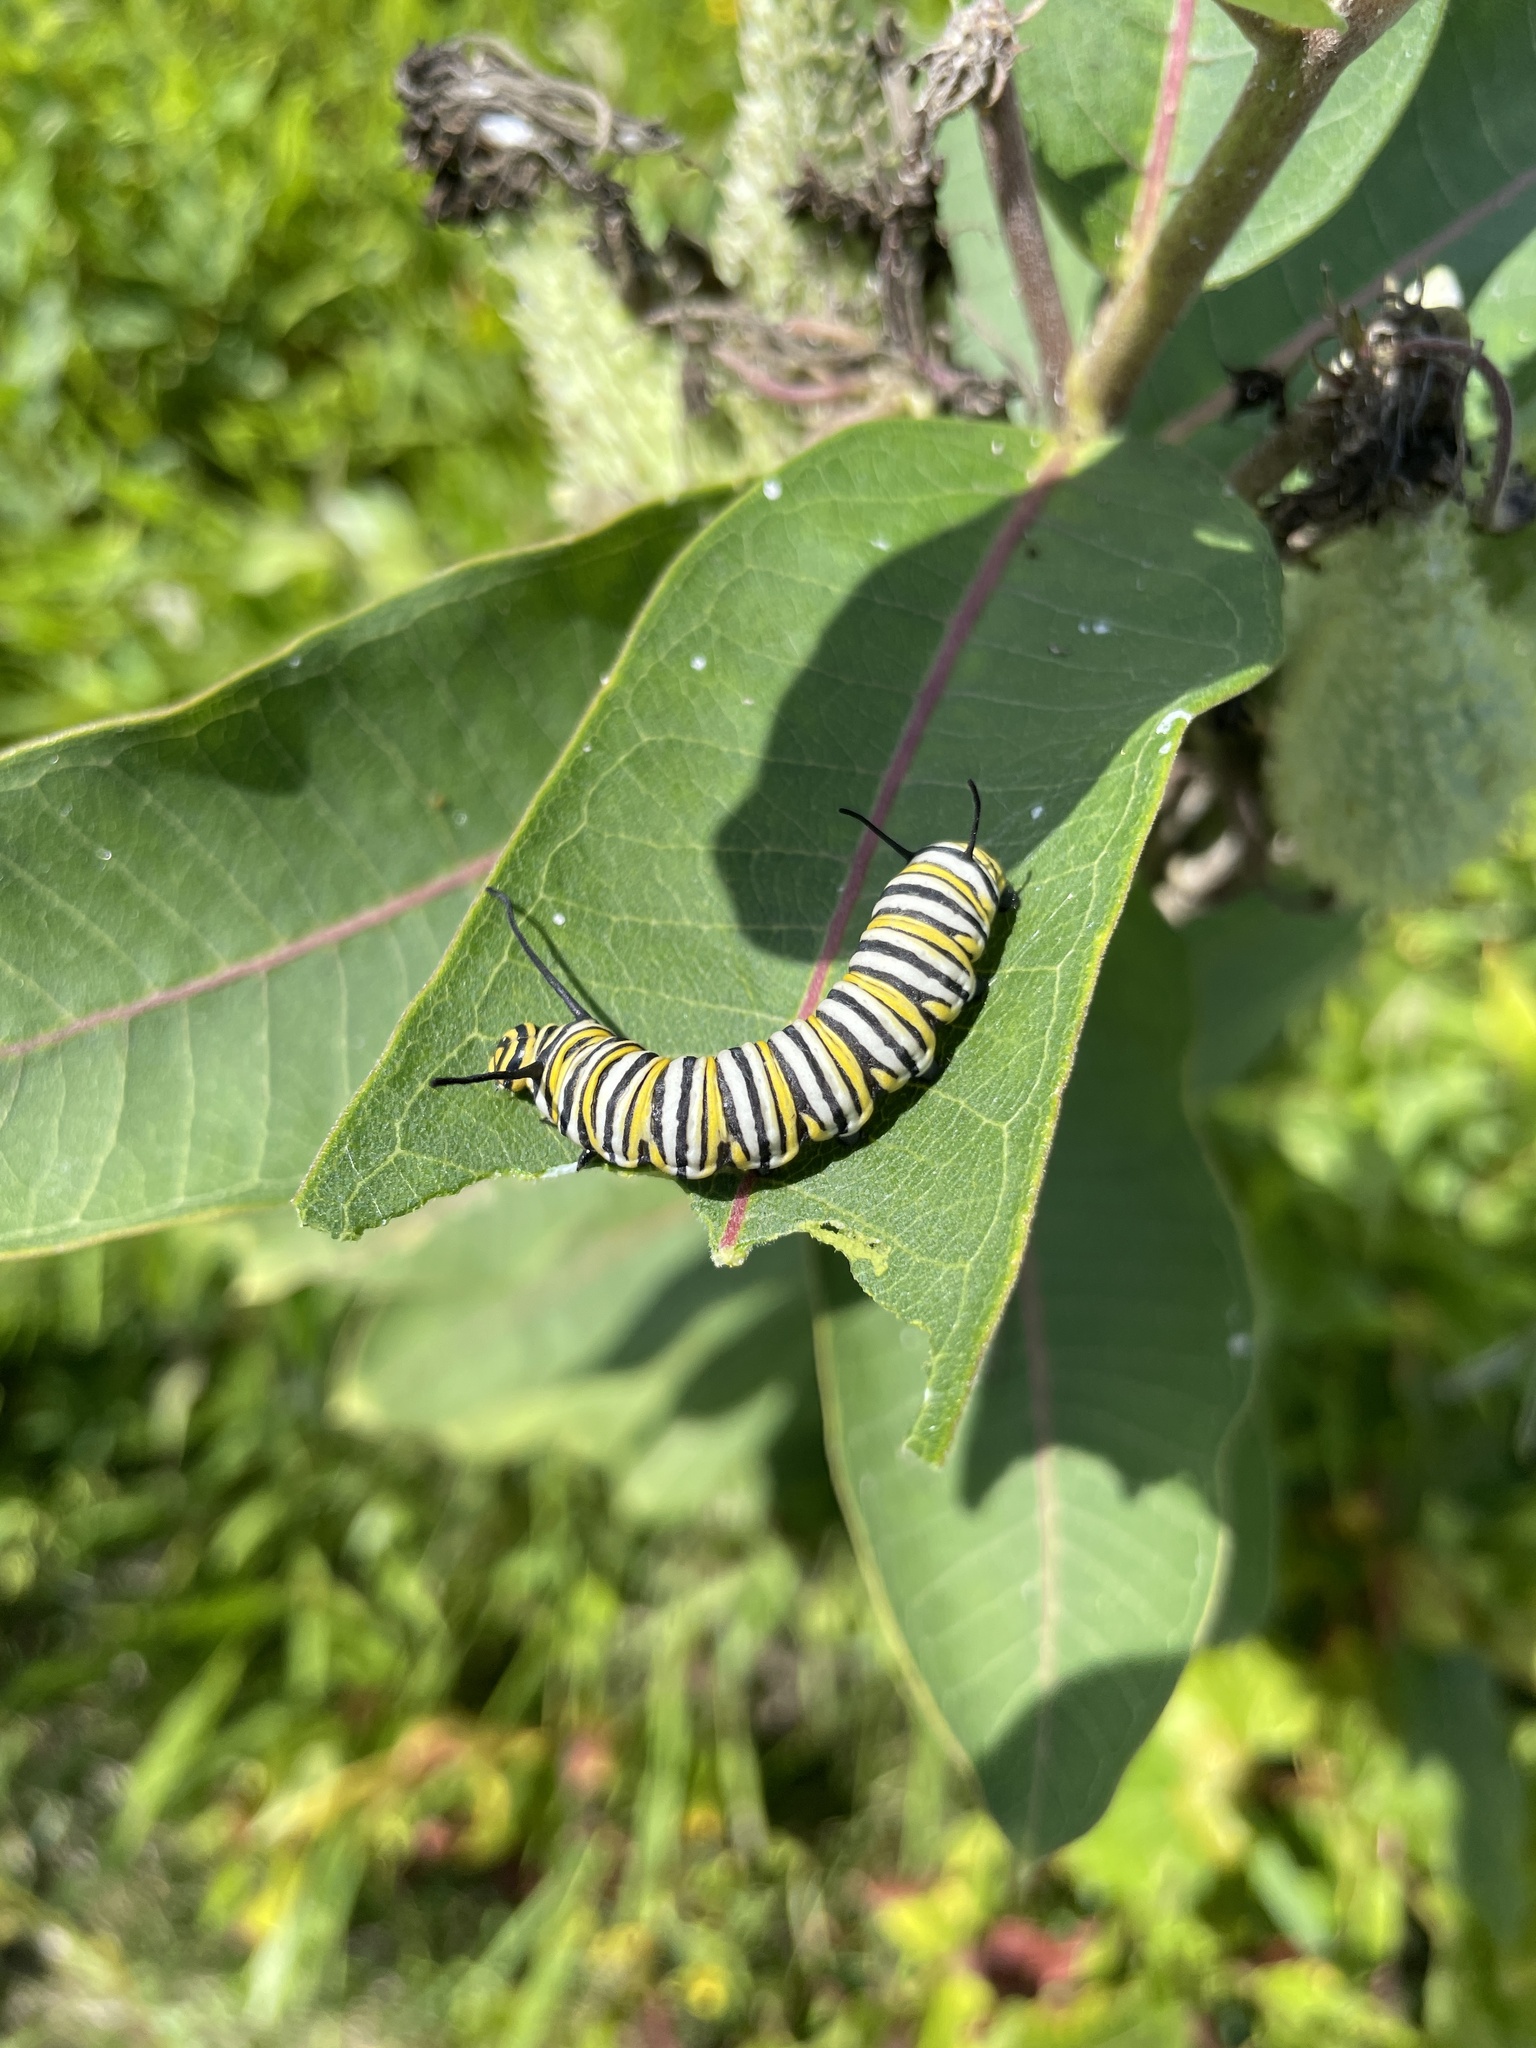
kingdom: Animalia
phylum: Arthropoda
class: Insecta
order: Lepidoptera
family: Nymphalidae
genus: Danaus
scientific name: Danaus plexippus
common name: Monarch
